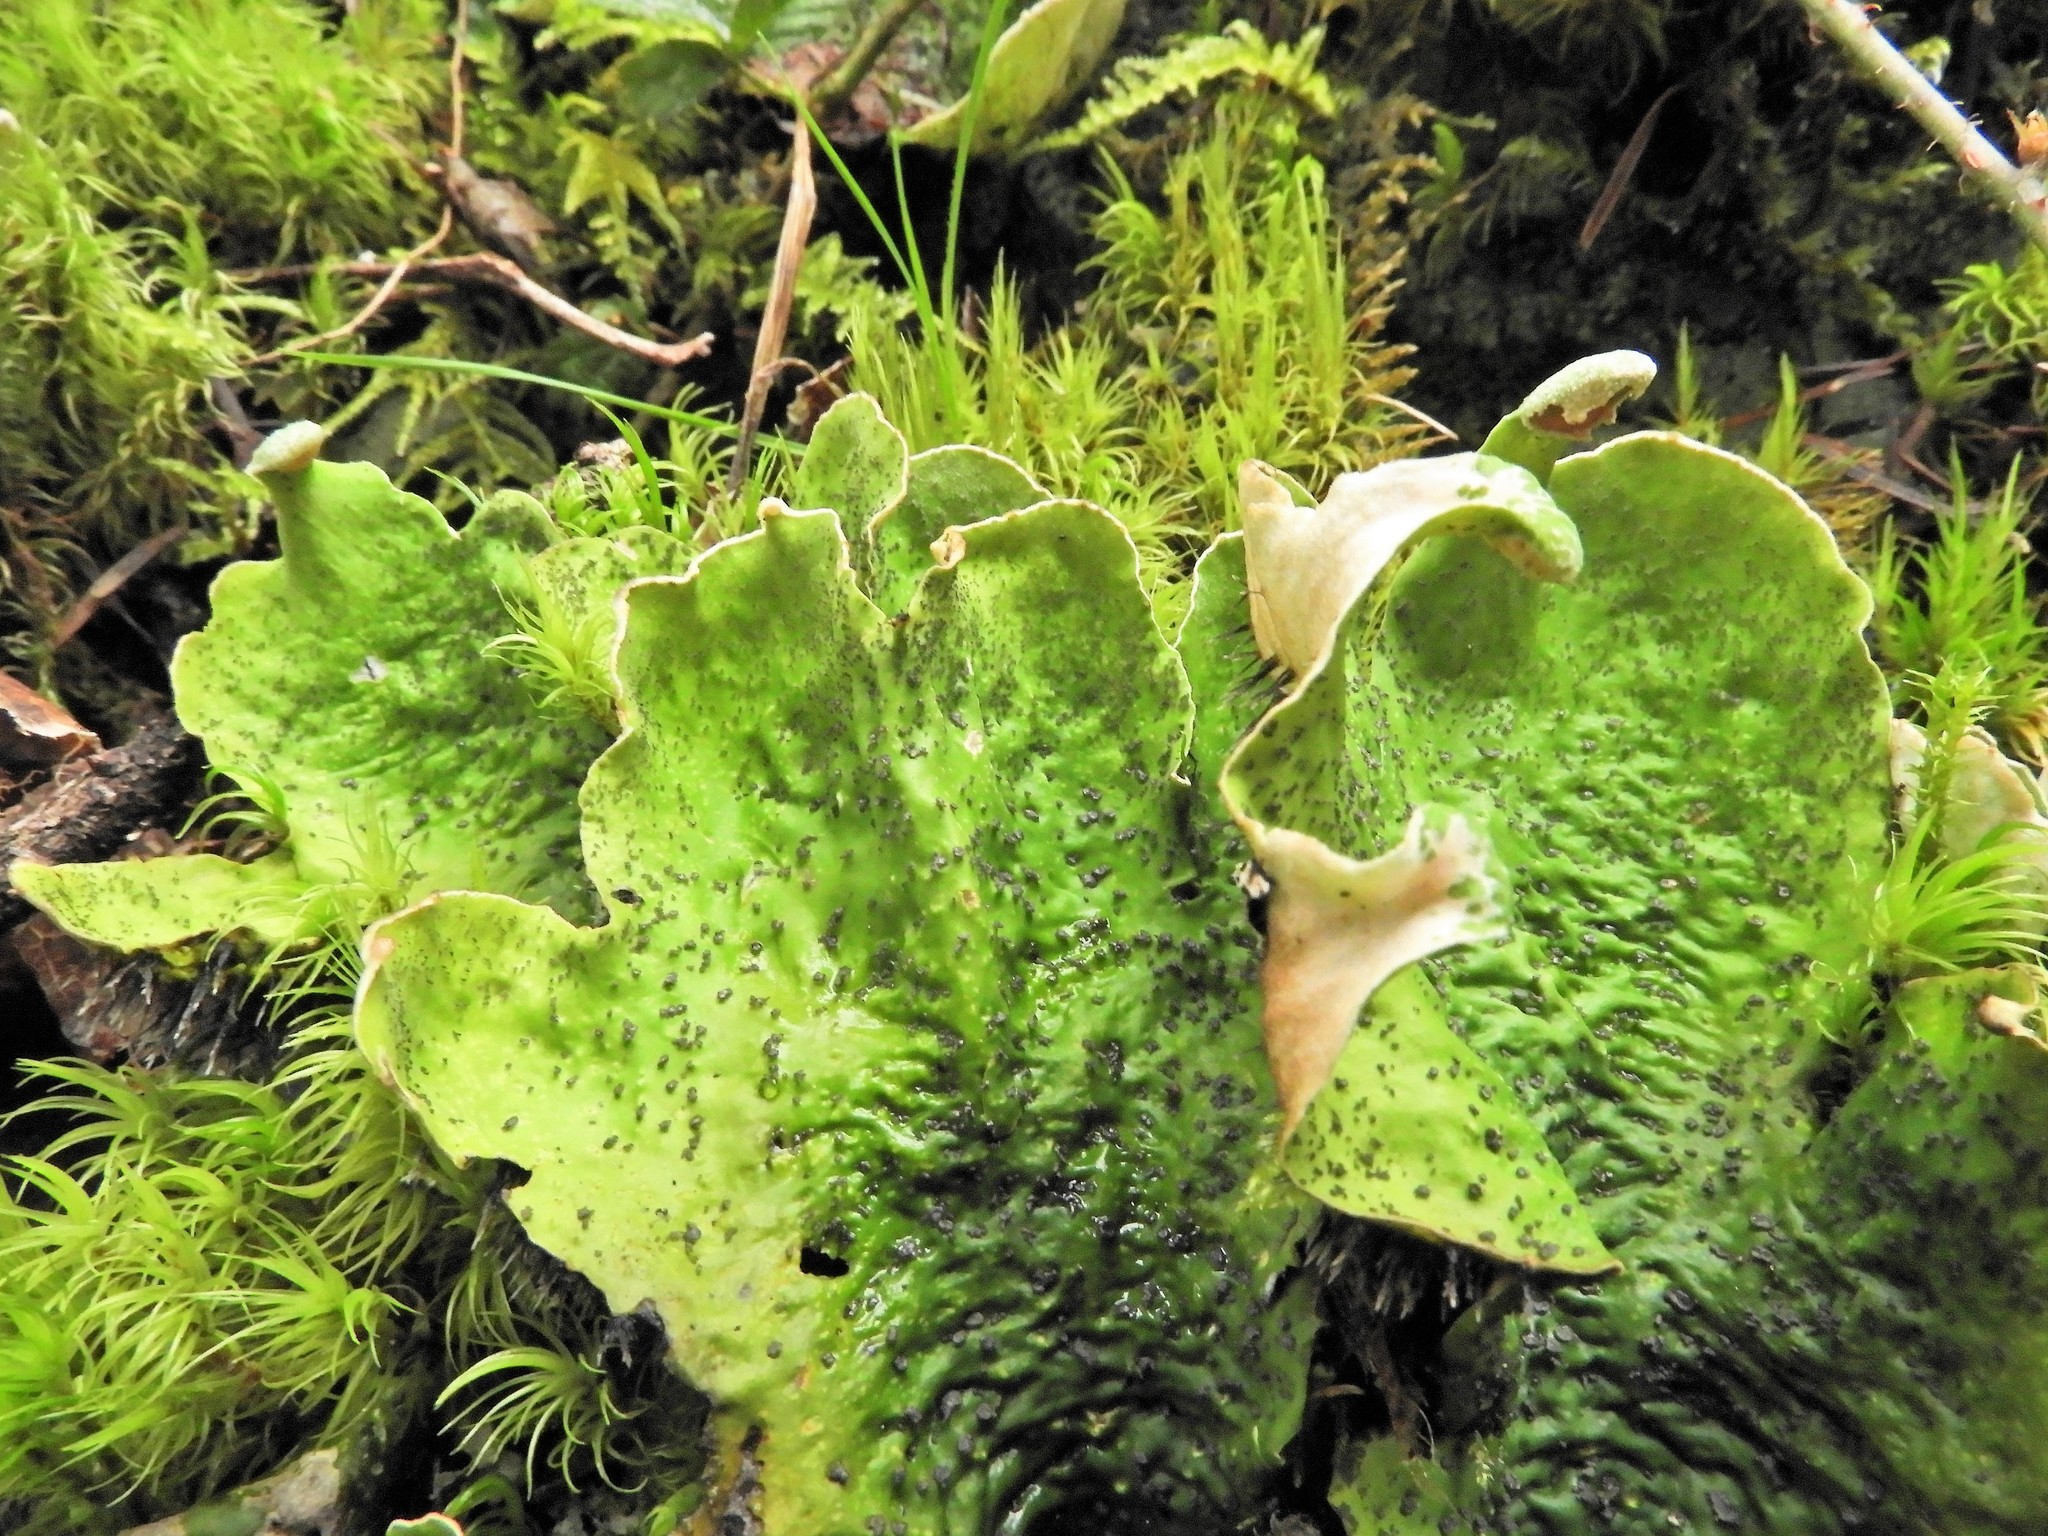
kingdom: Fungi
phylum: Ascomycota
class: Lecanoromycetes
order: Peltigerales
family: Peltigeraceae
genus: Peltigera
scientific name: Peltigera britannica
